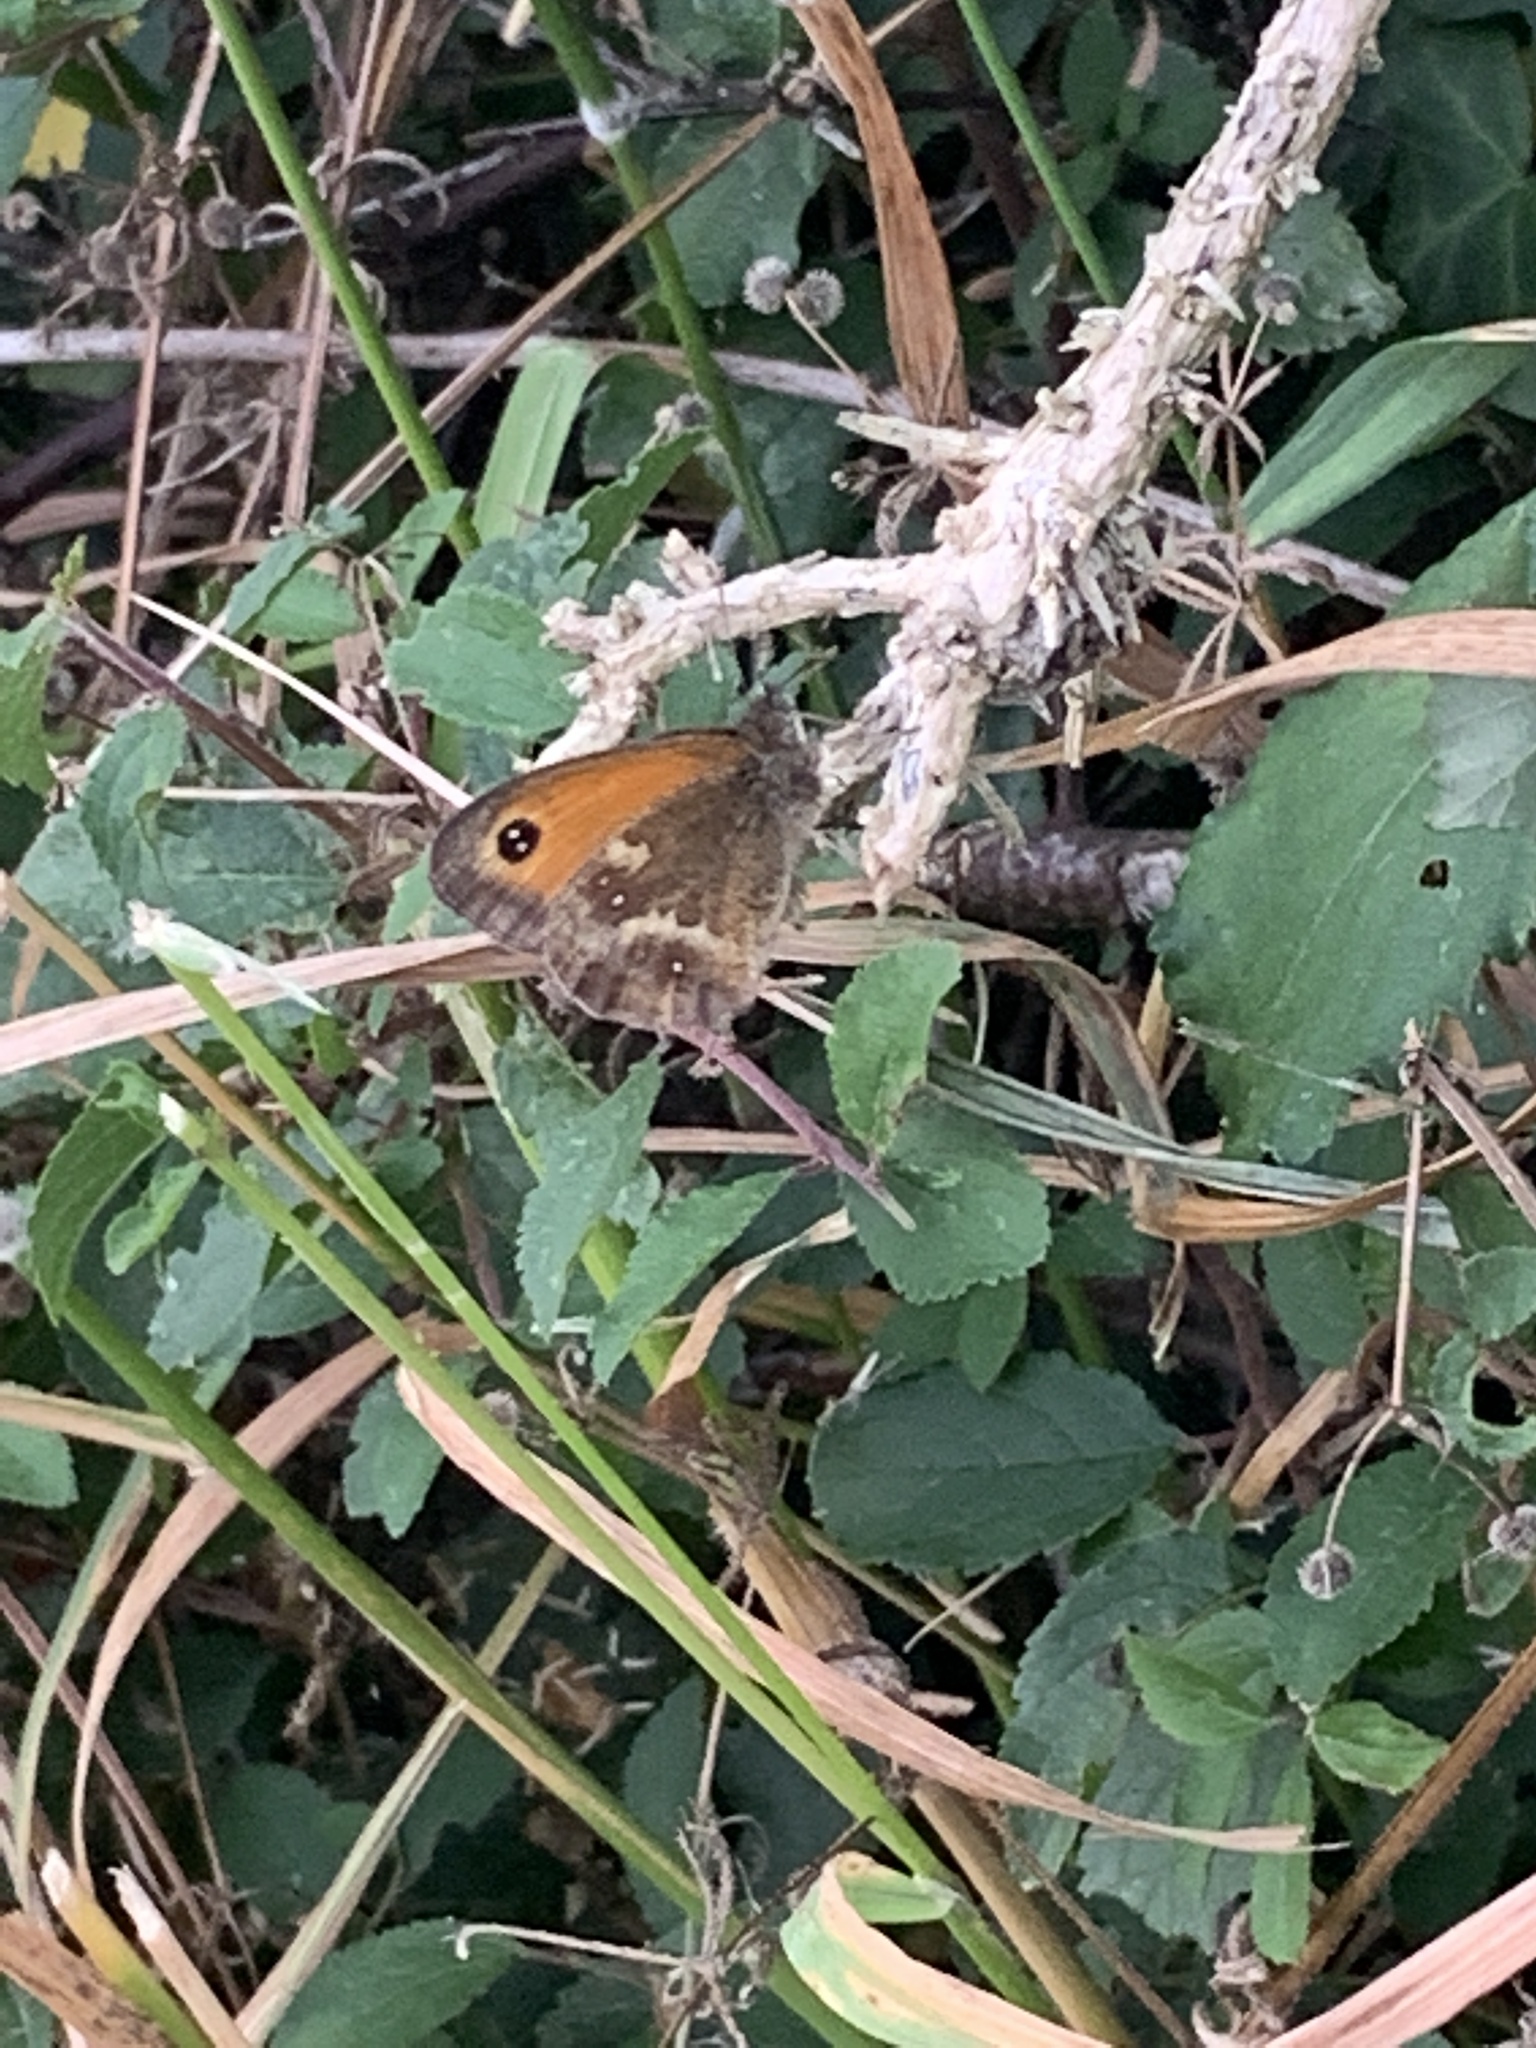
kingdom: Animalia
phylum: Arthropoda
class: Insecta
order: Lepidoptera
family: Nymphalidae
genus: Pyronia
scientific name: Pyronia tithonus
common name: Gatekeeper
